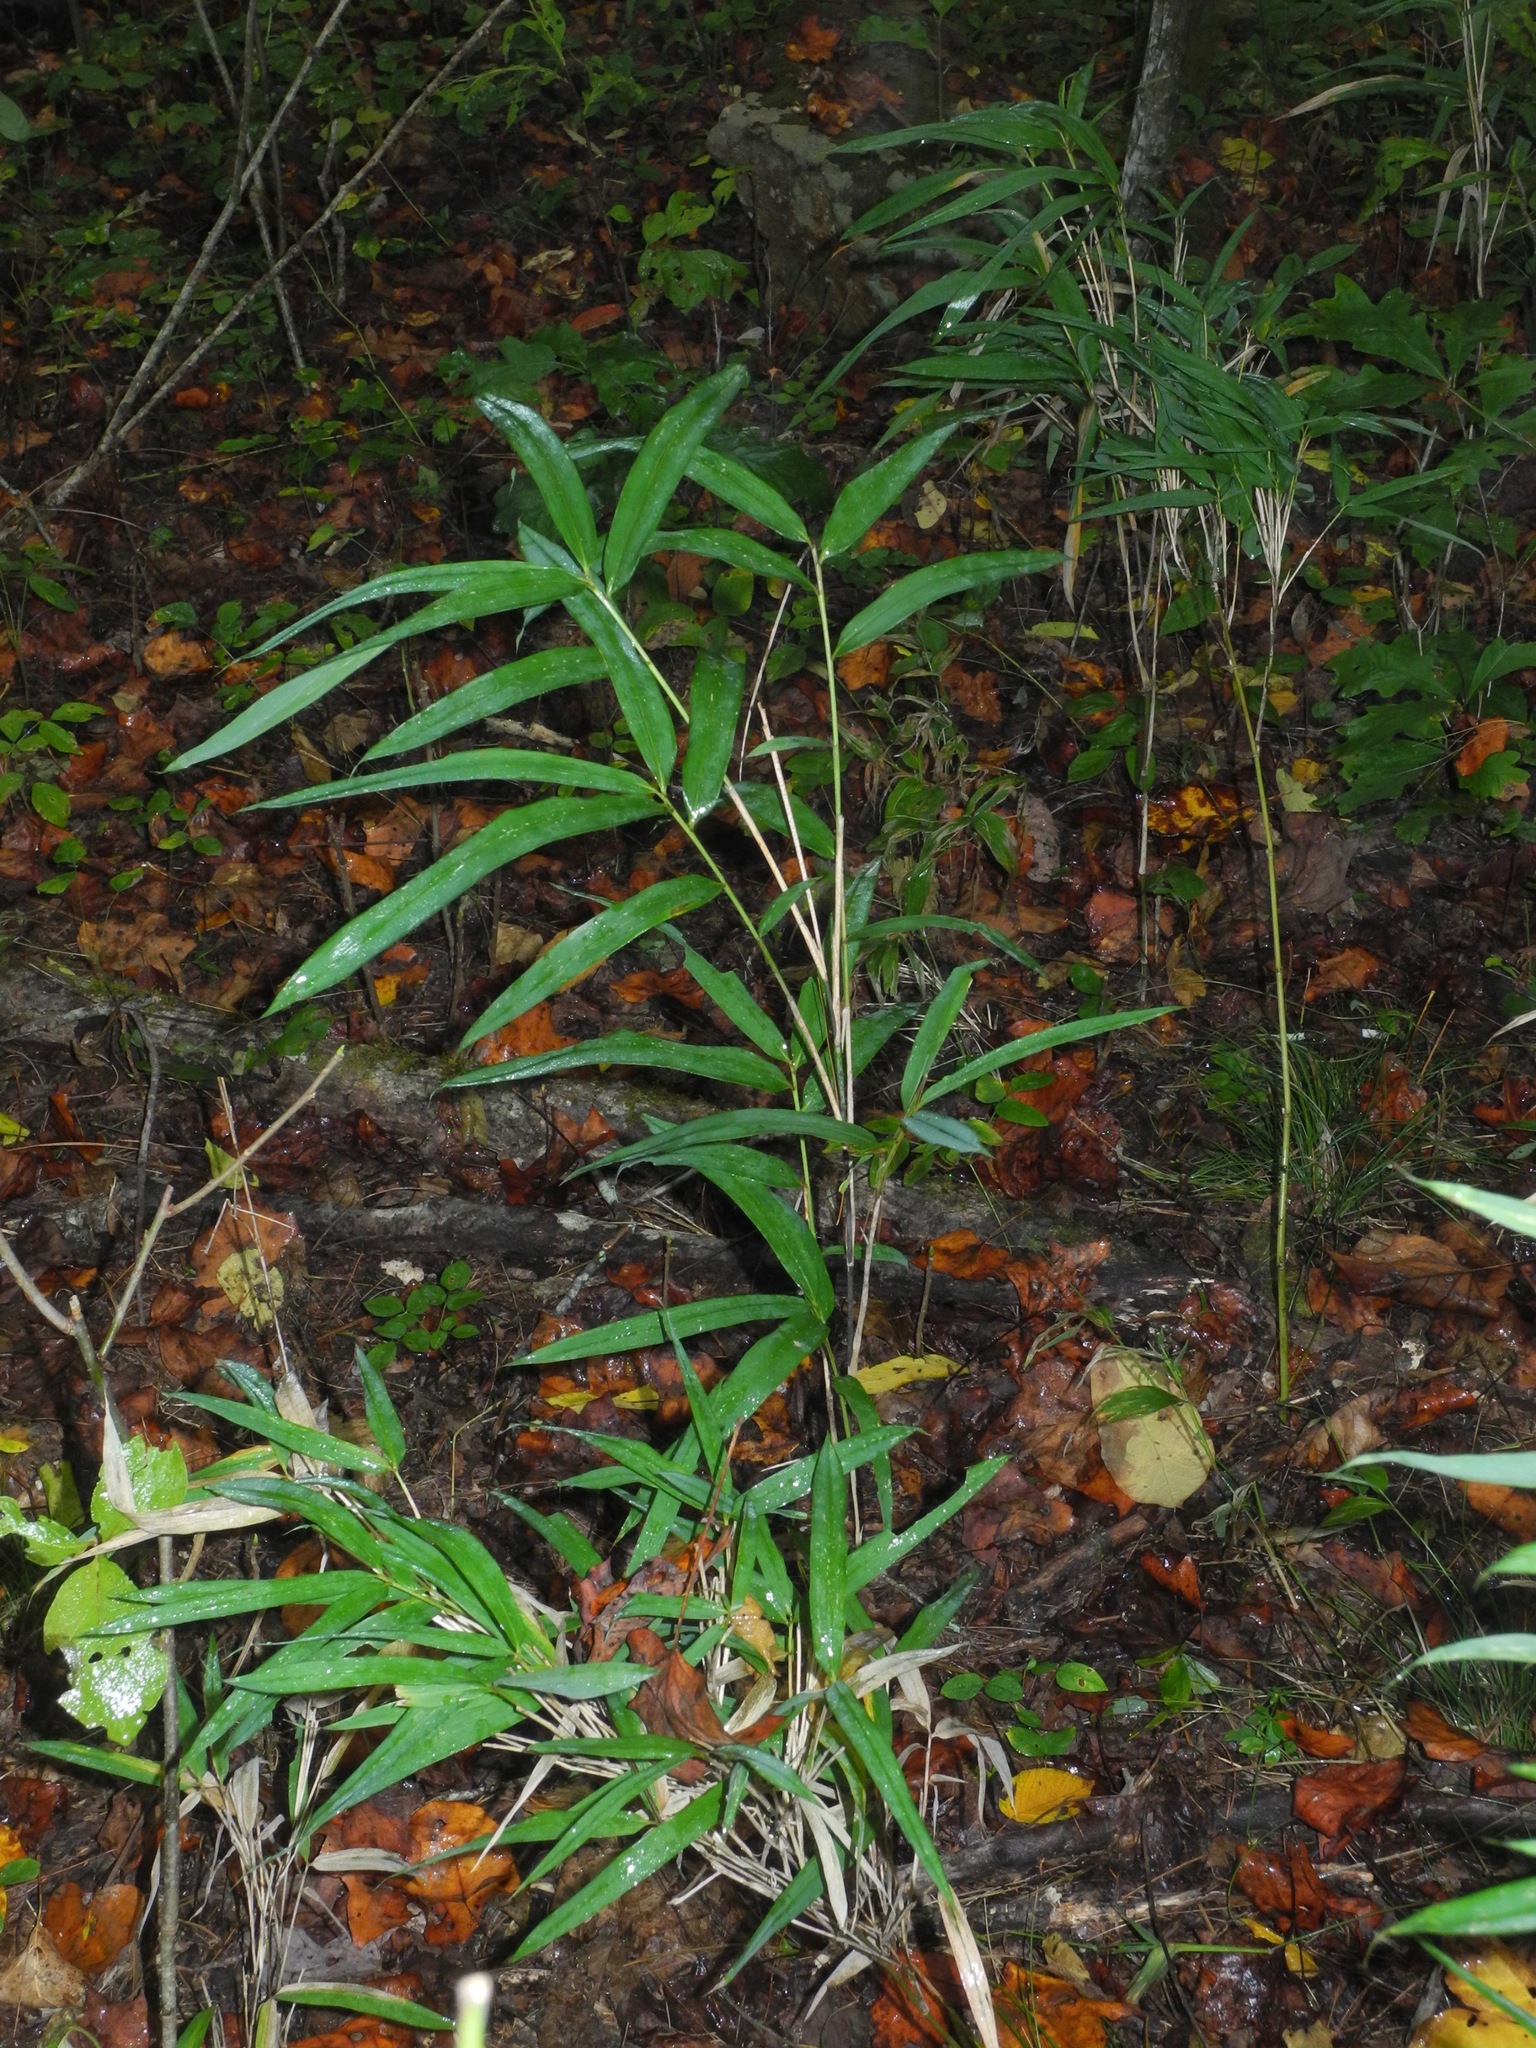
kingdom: Plantae
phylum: Tracheophyta
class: Liliopsida
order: Poales
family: Poaceae
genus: Arundinaria
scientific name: Arundinaria appalachiana
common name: Hill cane
